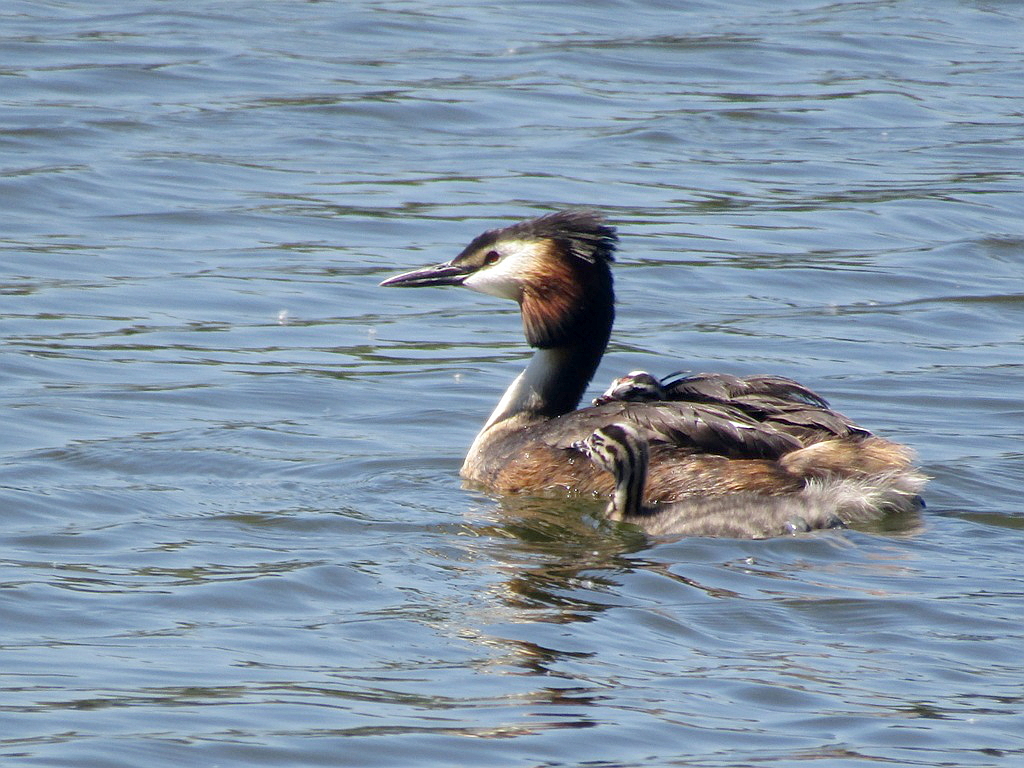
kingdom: Animalia
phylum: Chordata
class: Aves
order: Podicipediformes
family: Podicipedidae
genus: Podiceps
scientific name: Podiceps cristatus
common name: Great crested grebe
